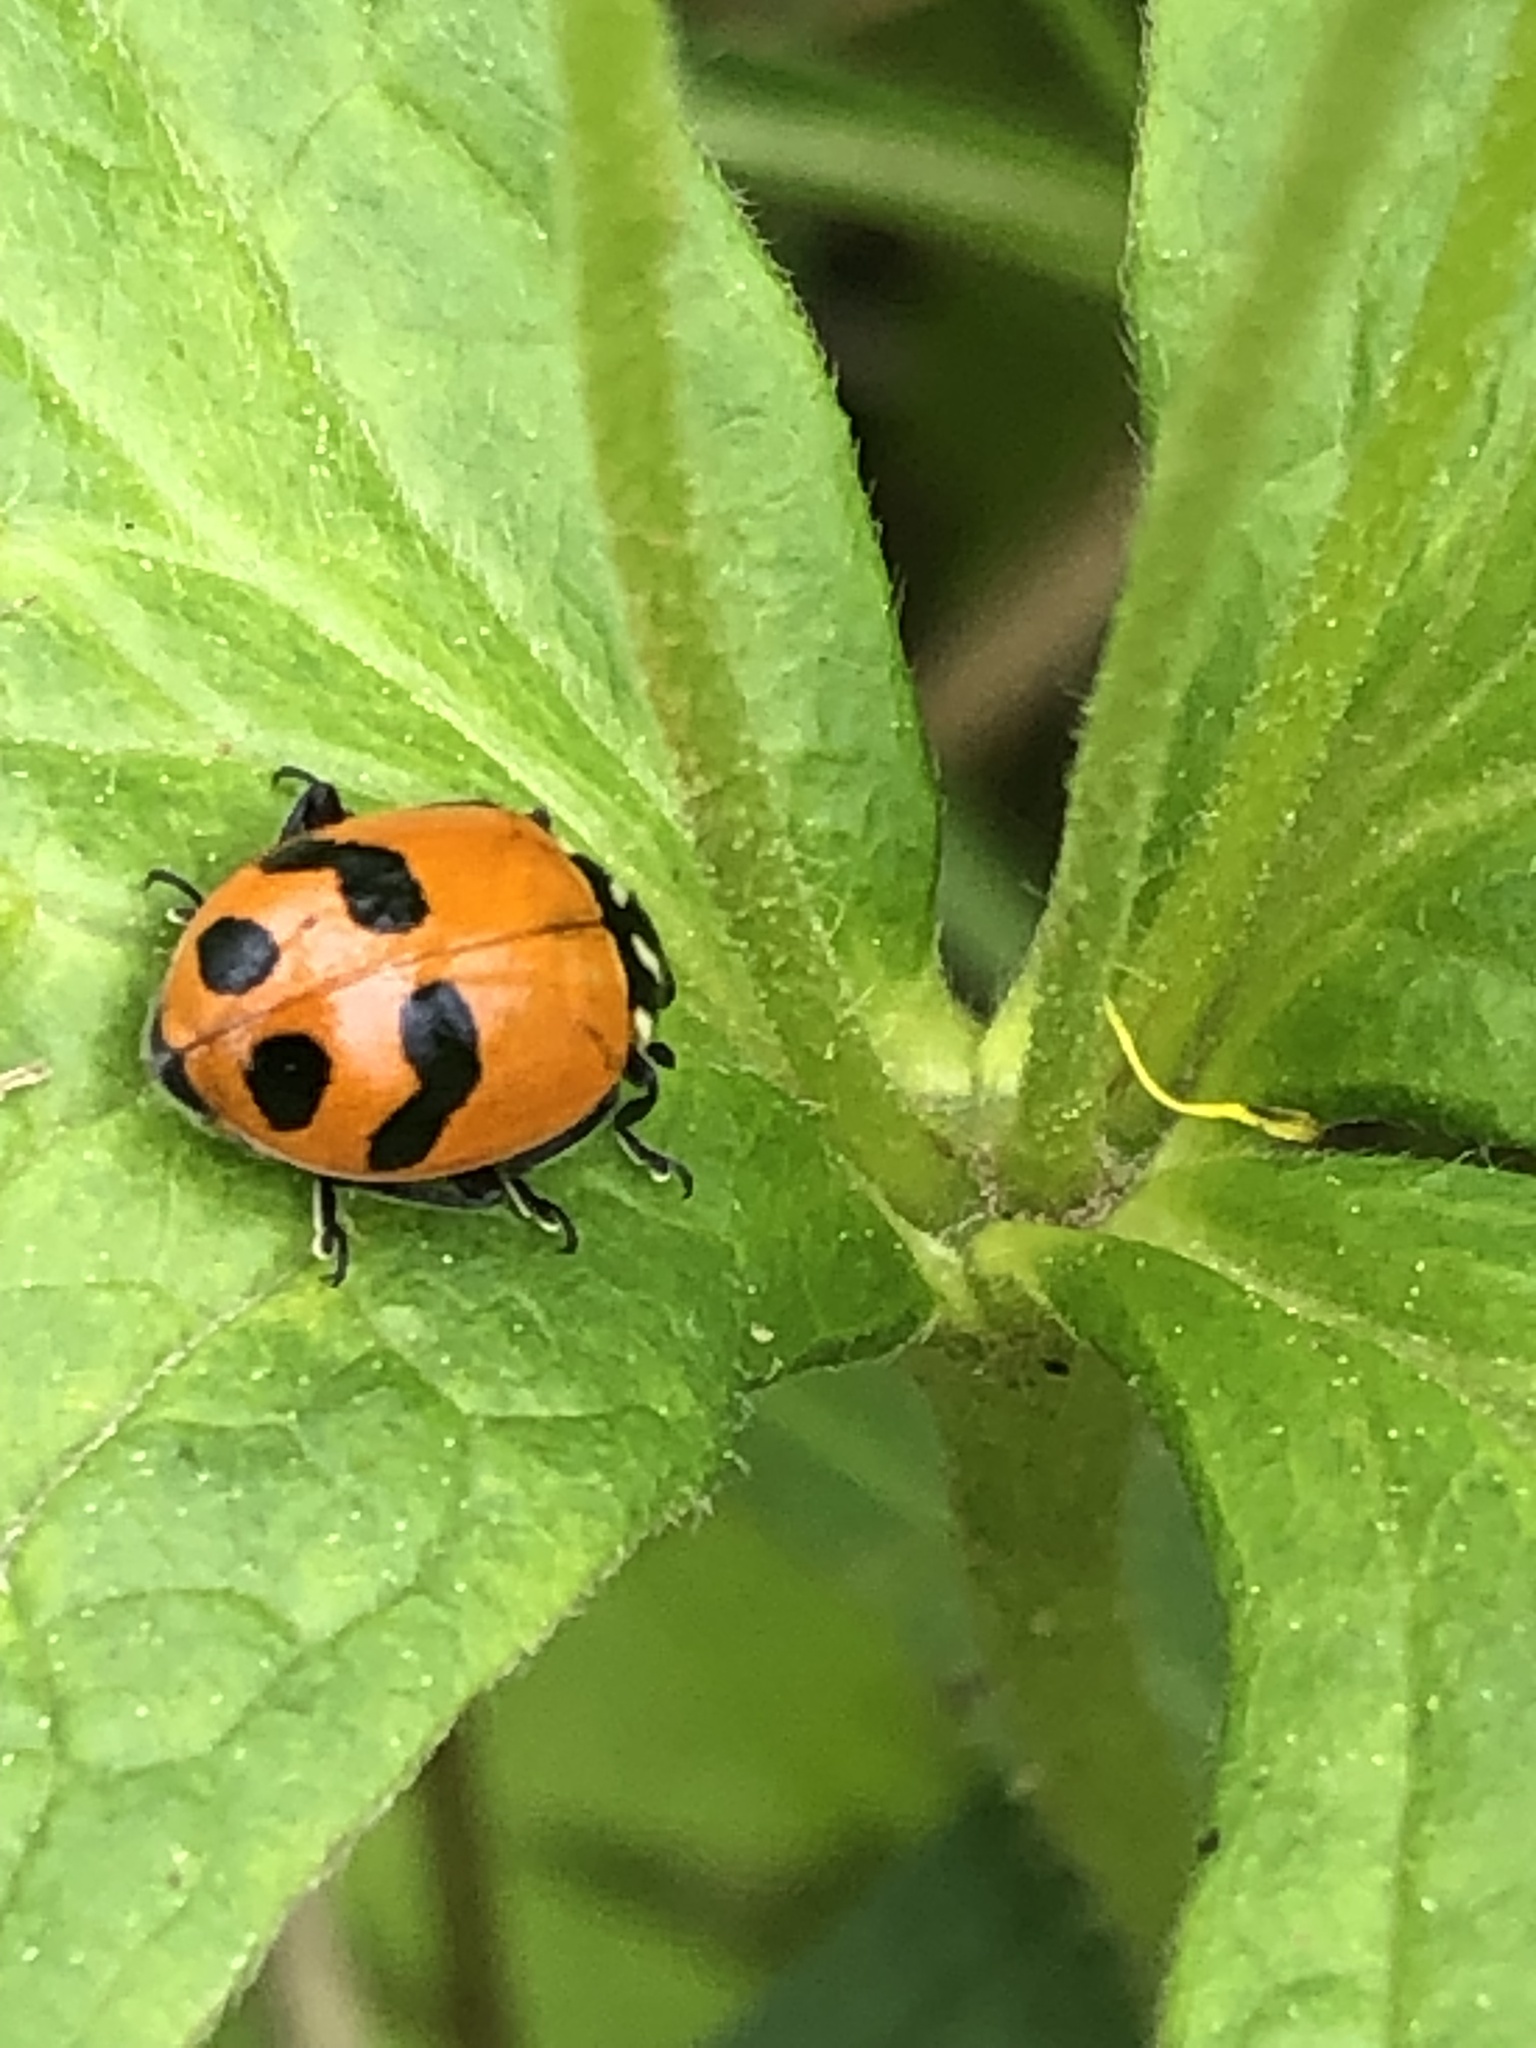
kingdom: Animalia
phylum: Arthropoda
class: Insecta
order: Coleoptera
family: Coccinellidae
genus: Hippodamia
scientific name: Hippodamia glacialis
